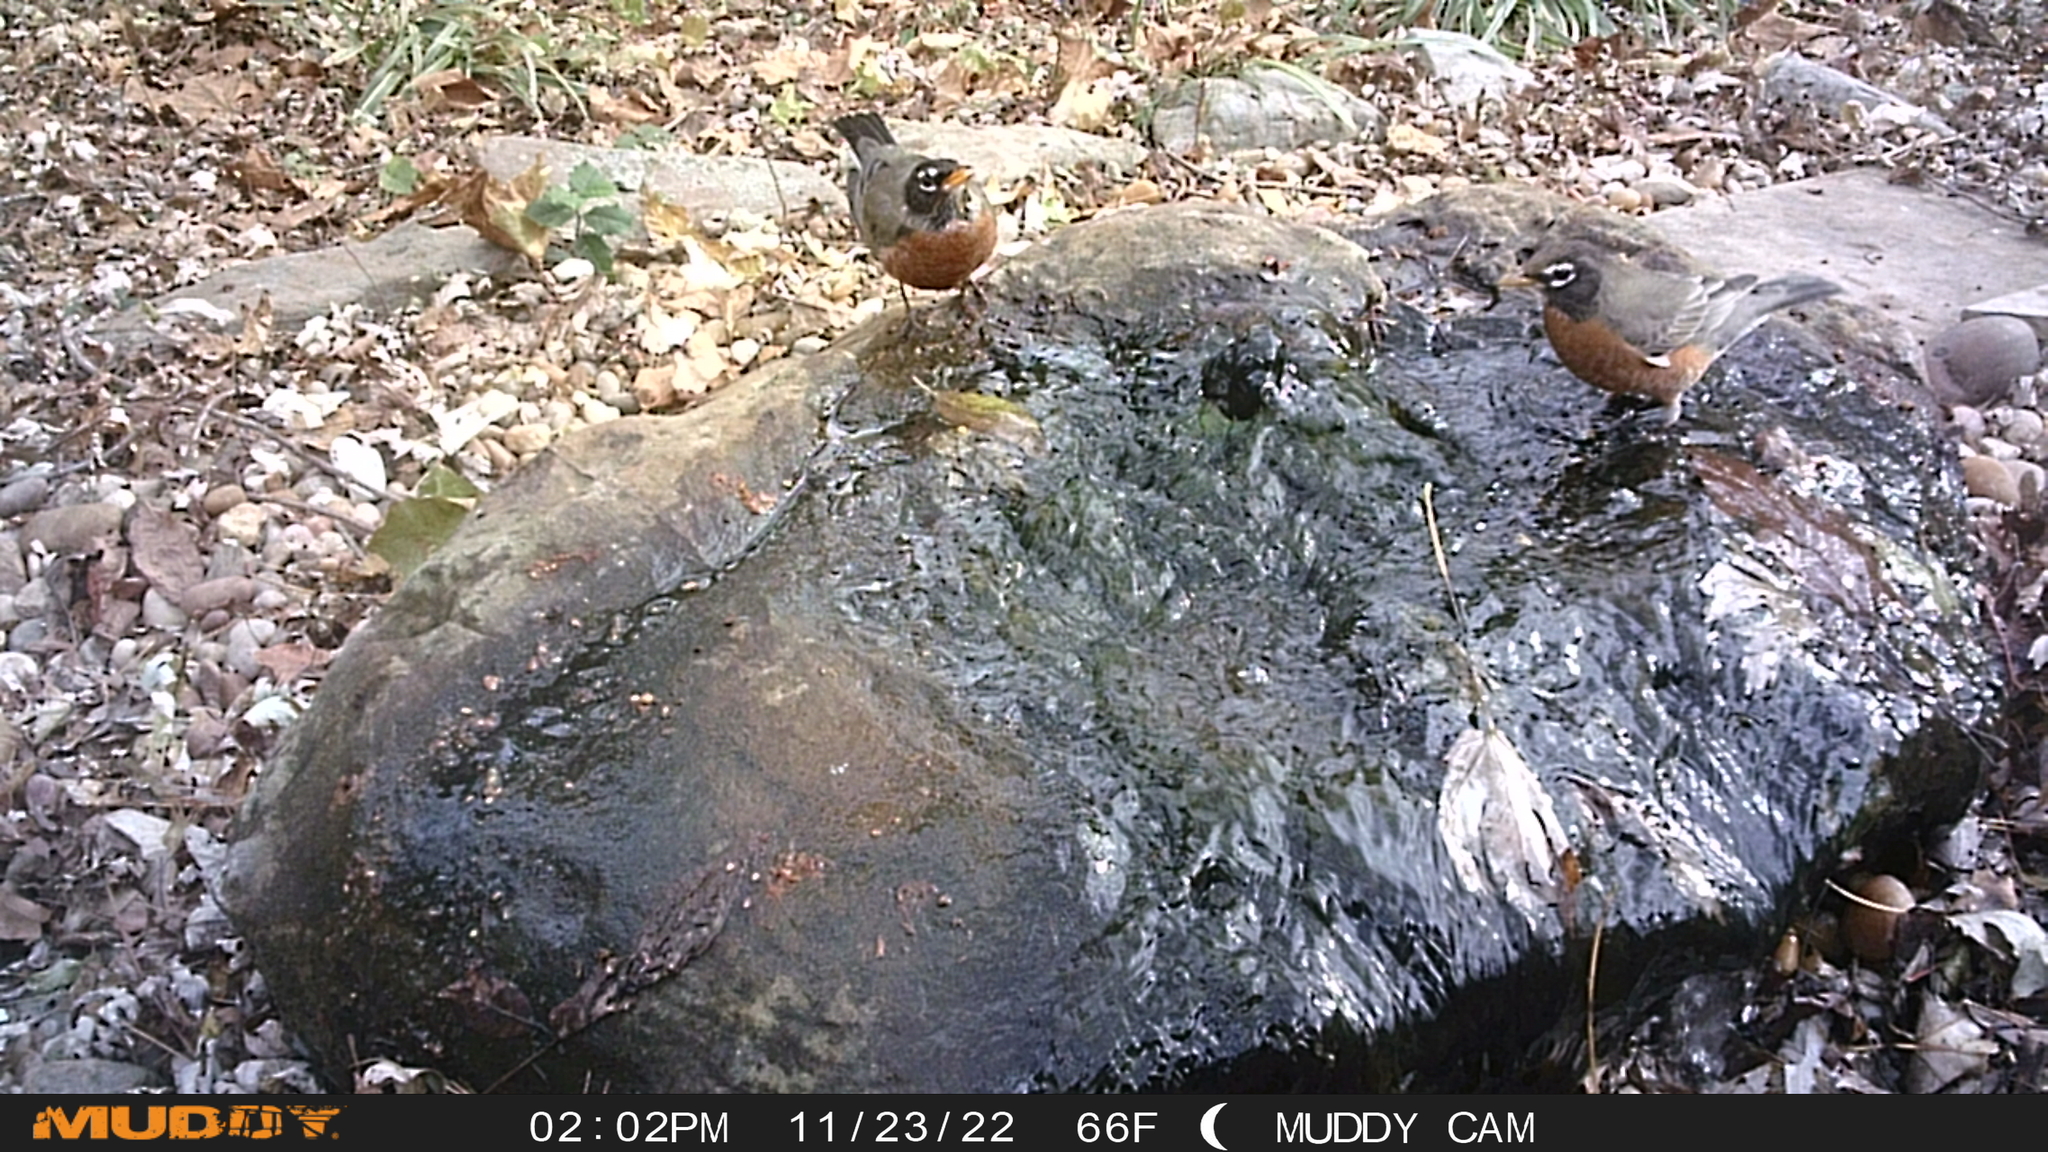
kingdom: Animalia
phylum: Chordata
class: Aves
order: Passeriformes
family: Turdidae
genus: Turdus
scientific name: Turdus migratorius
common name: American robin
